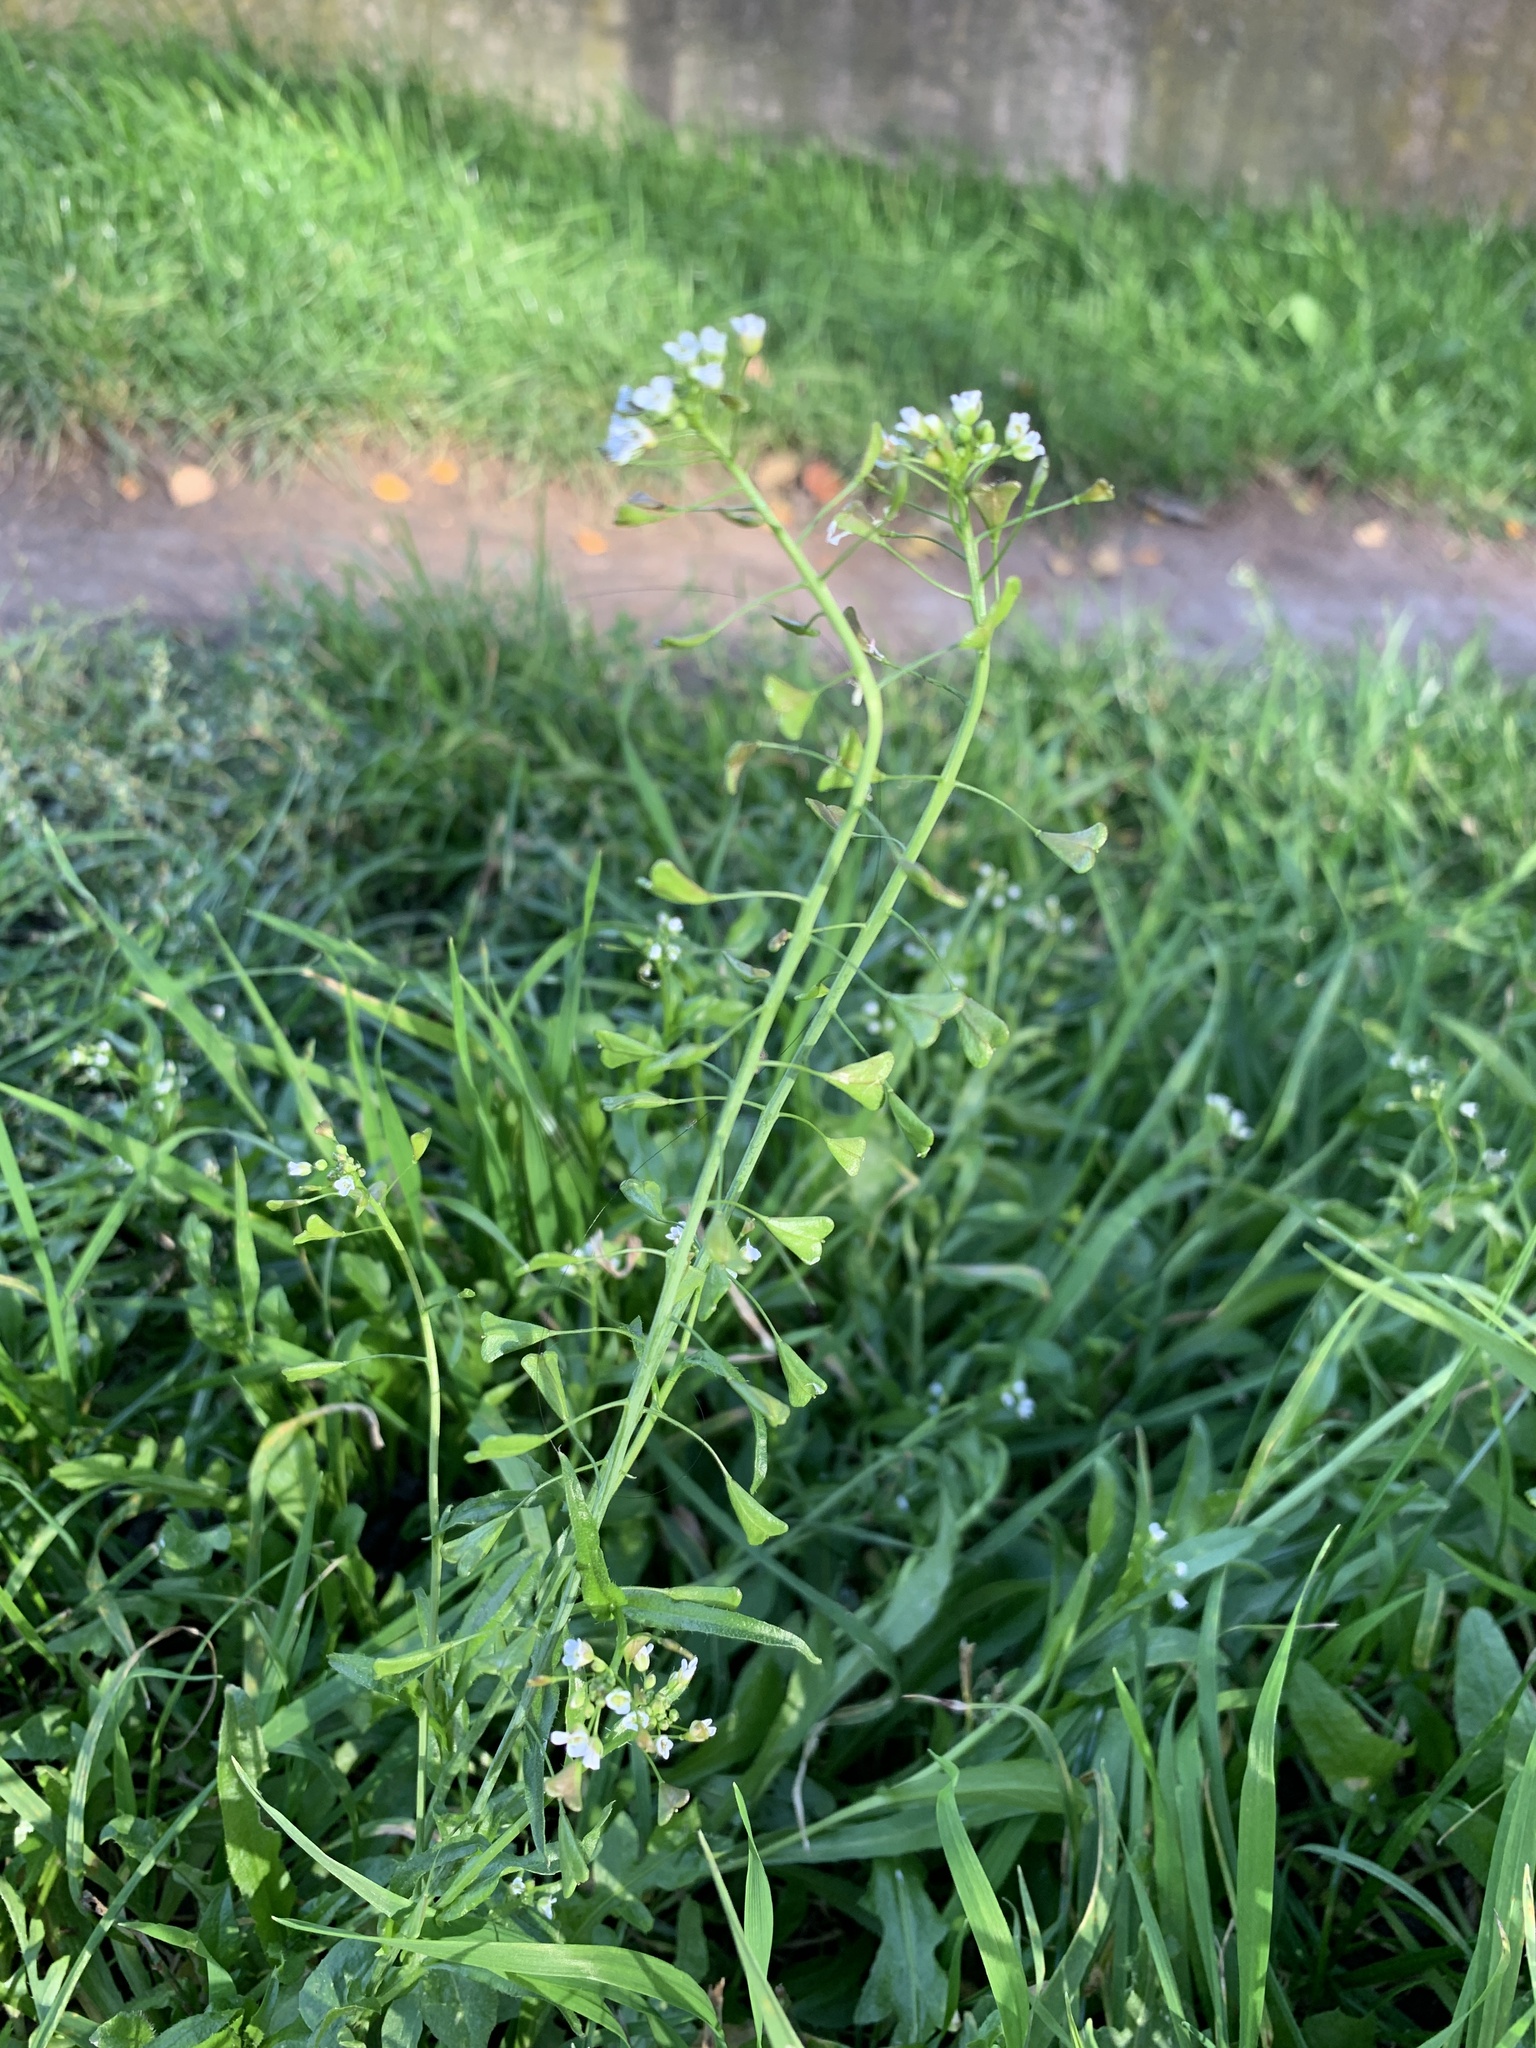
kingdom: Plantae
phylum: Tracheophyta
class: Magnoliopsida
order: Brassicales
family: Brassicaceae
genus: Capsella
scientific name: Capsella bursa-pastoris
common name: Shepherd's purse
